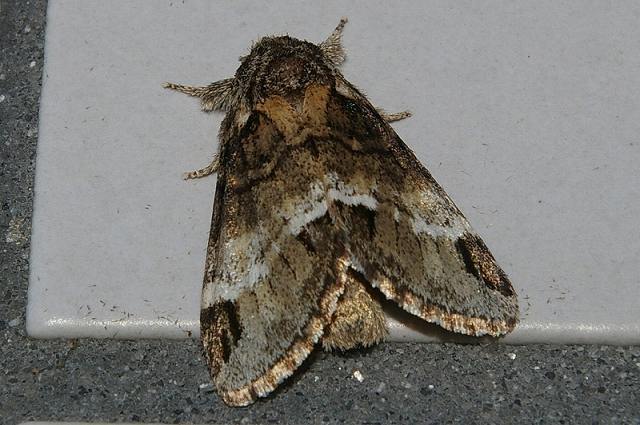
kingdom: Animalia
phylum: Arthropoda
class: Insecta
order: Lepidoptera
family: Notodontidae
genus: Drymonia
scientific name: Drymonia japonica
